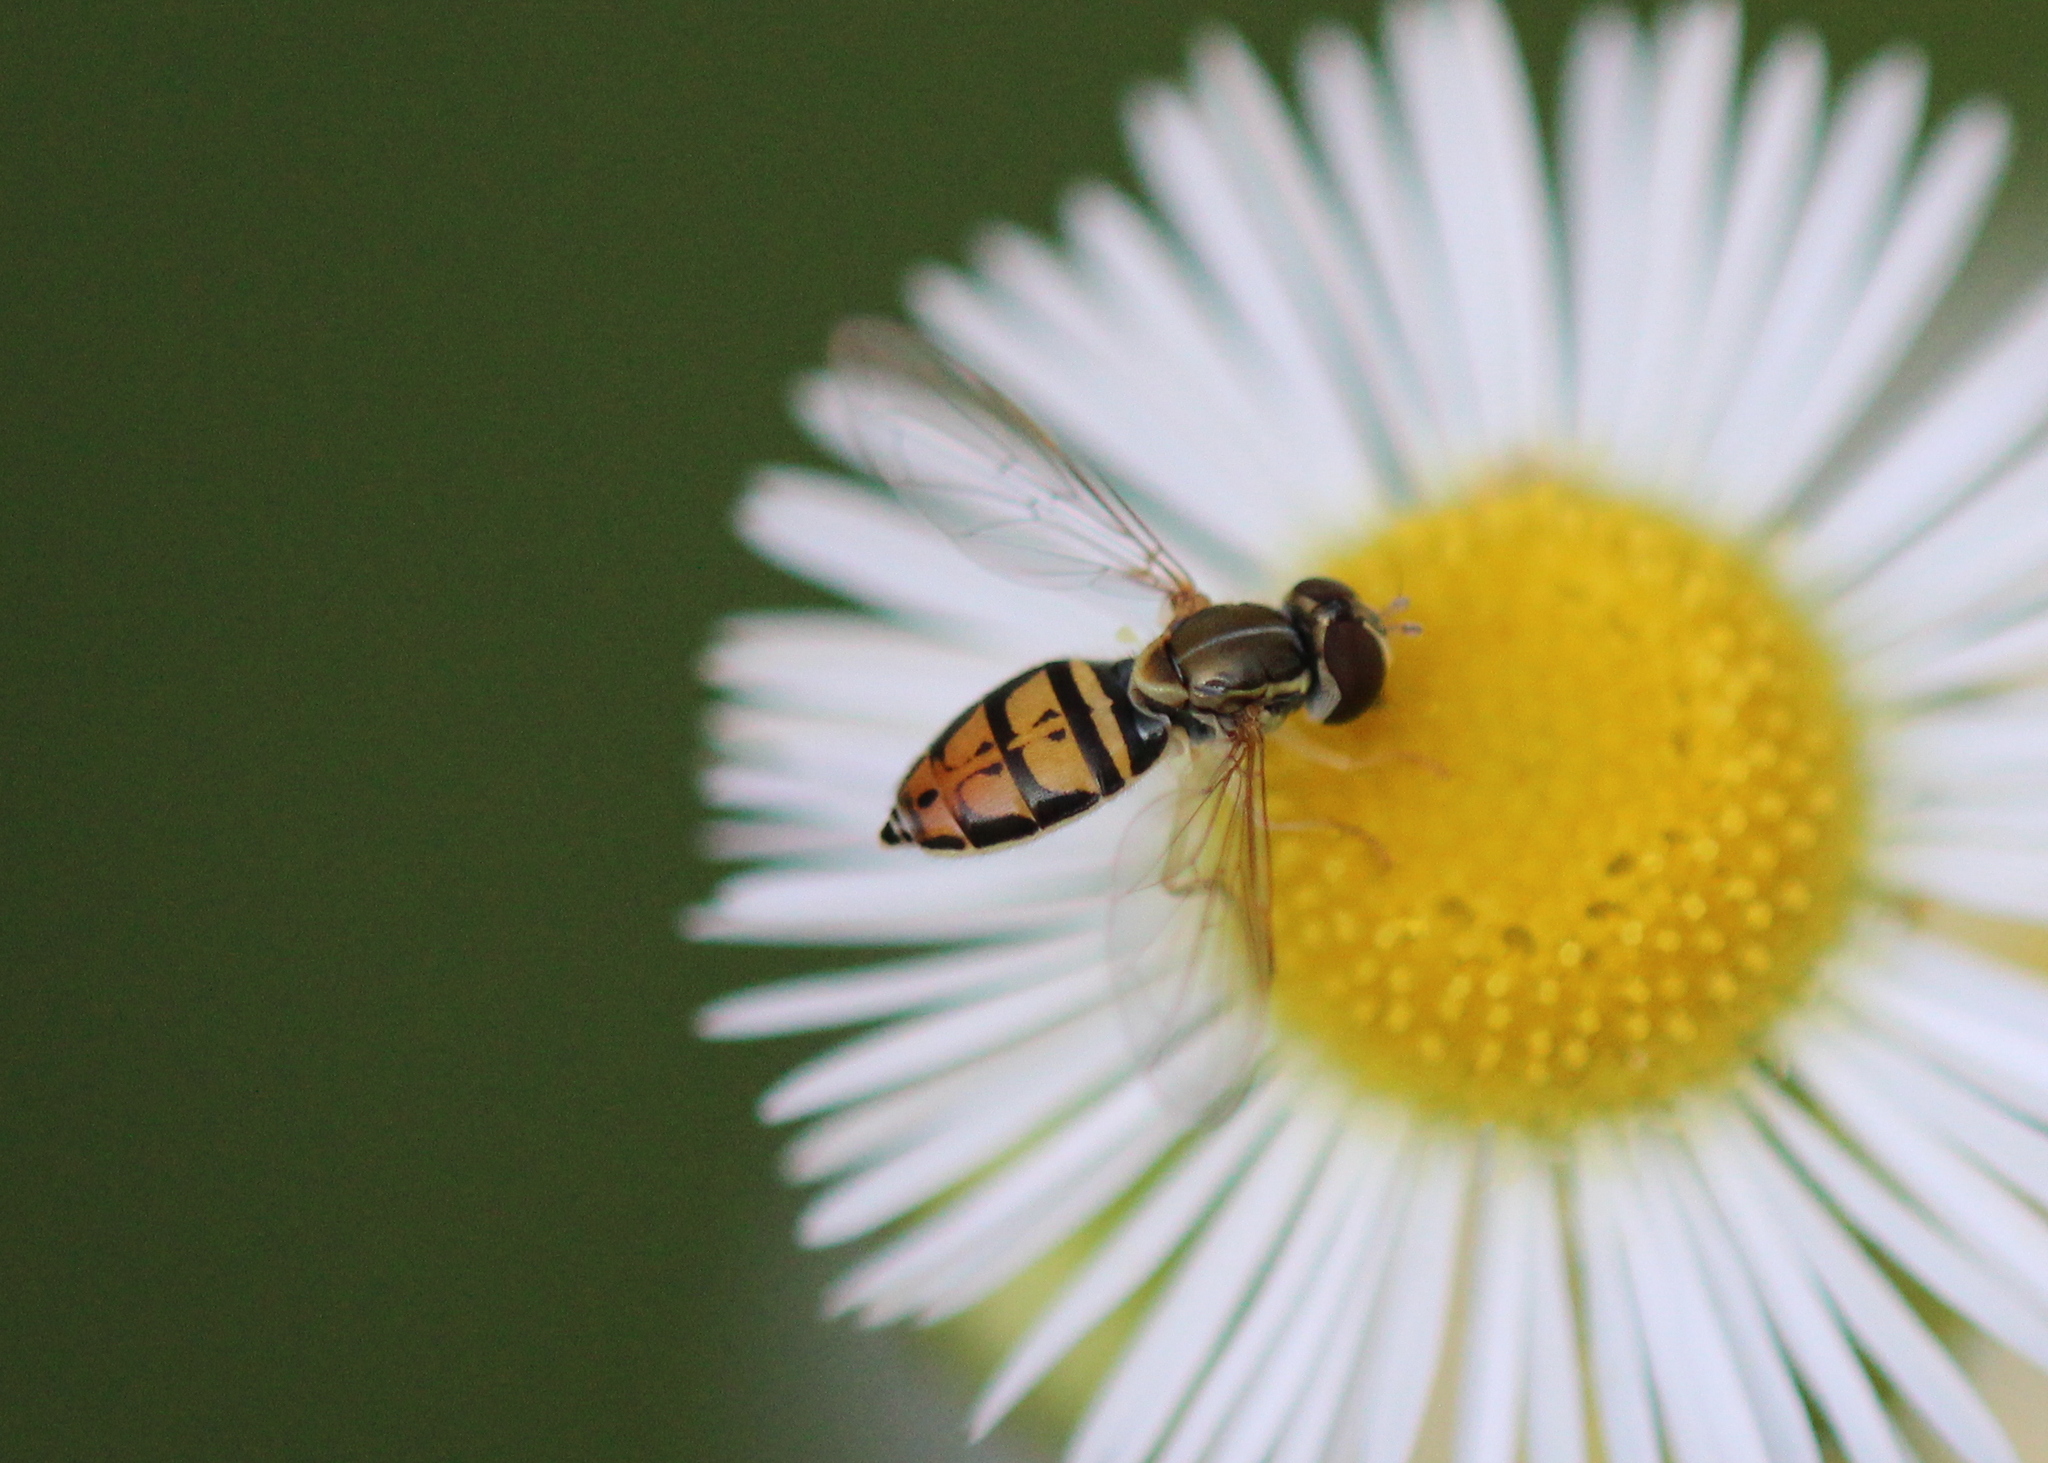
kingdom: Animalia
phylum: Arthropoda
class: Insecta
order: Diptera
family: Syrphidae
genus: Toxomerus
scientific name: Toxomerus marginatus
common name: Syrphid fly
